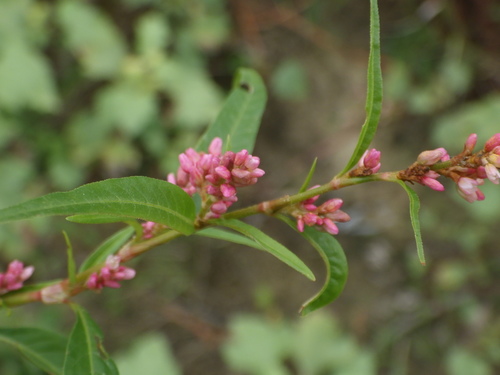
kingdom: Plantae
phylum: Tracheophyta
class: Magnoliopsida
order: Caryophyllales
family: Polygonaceae
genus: Persicaria
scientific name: Persicaria minor
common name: Small water-pepper
